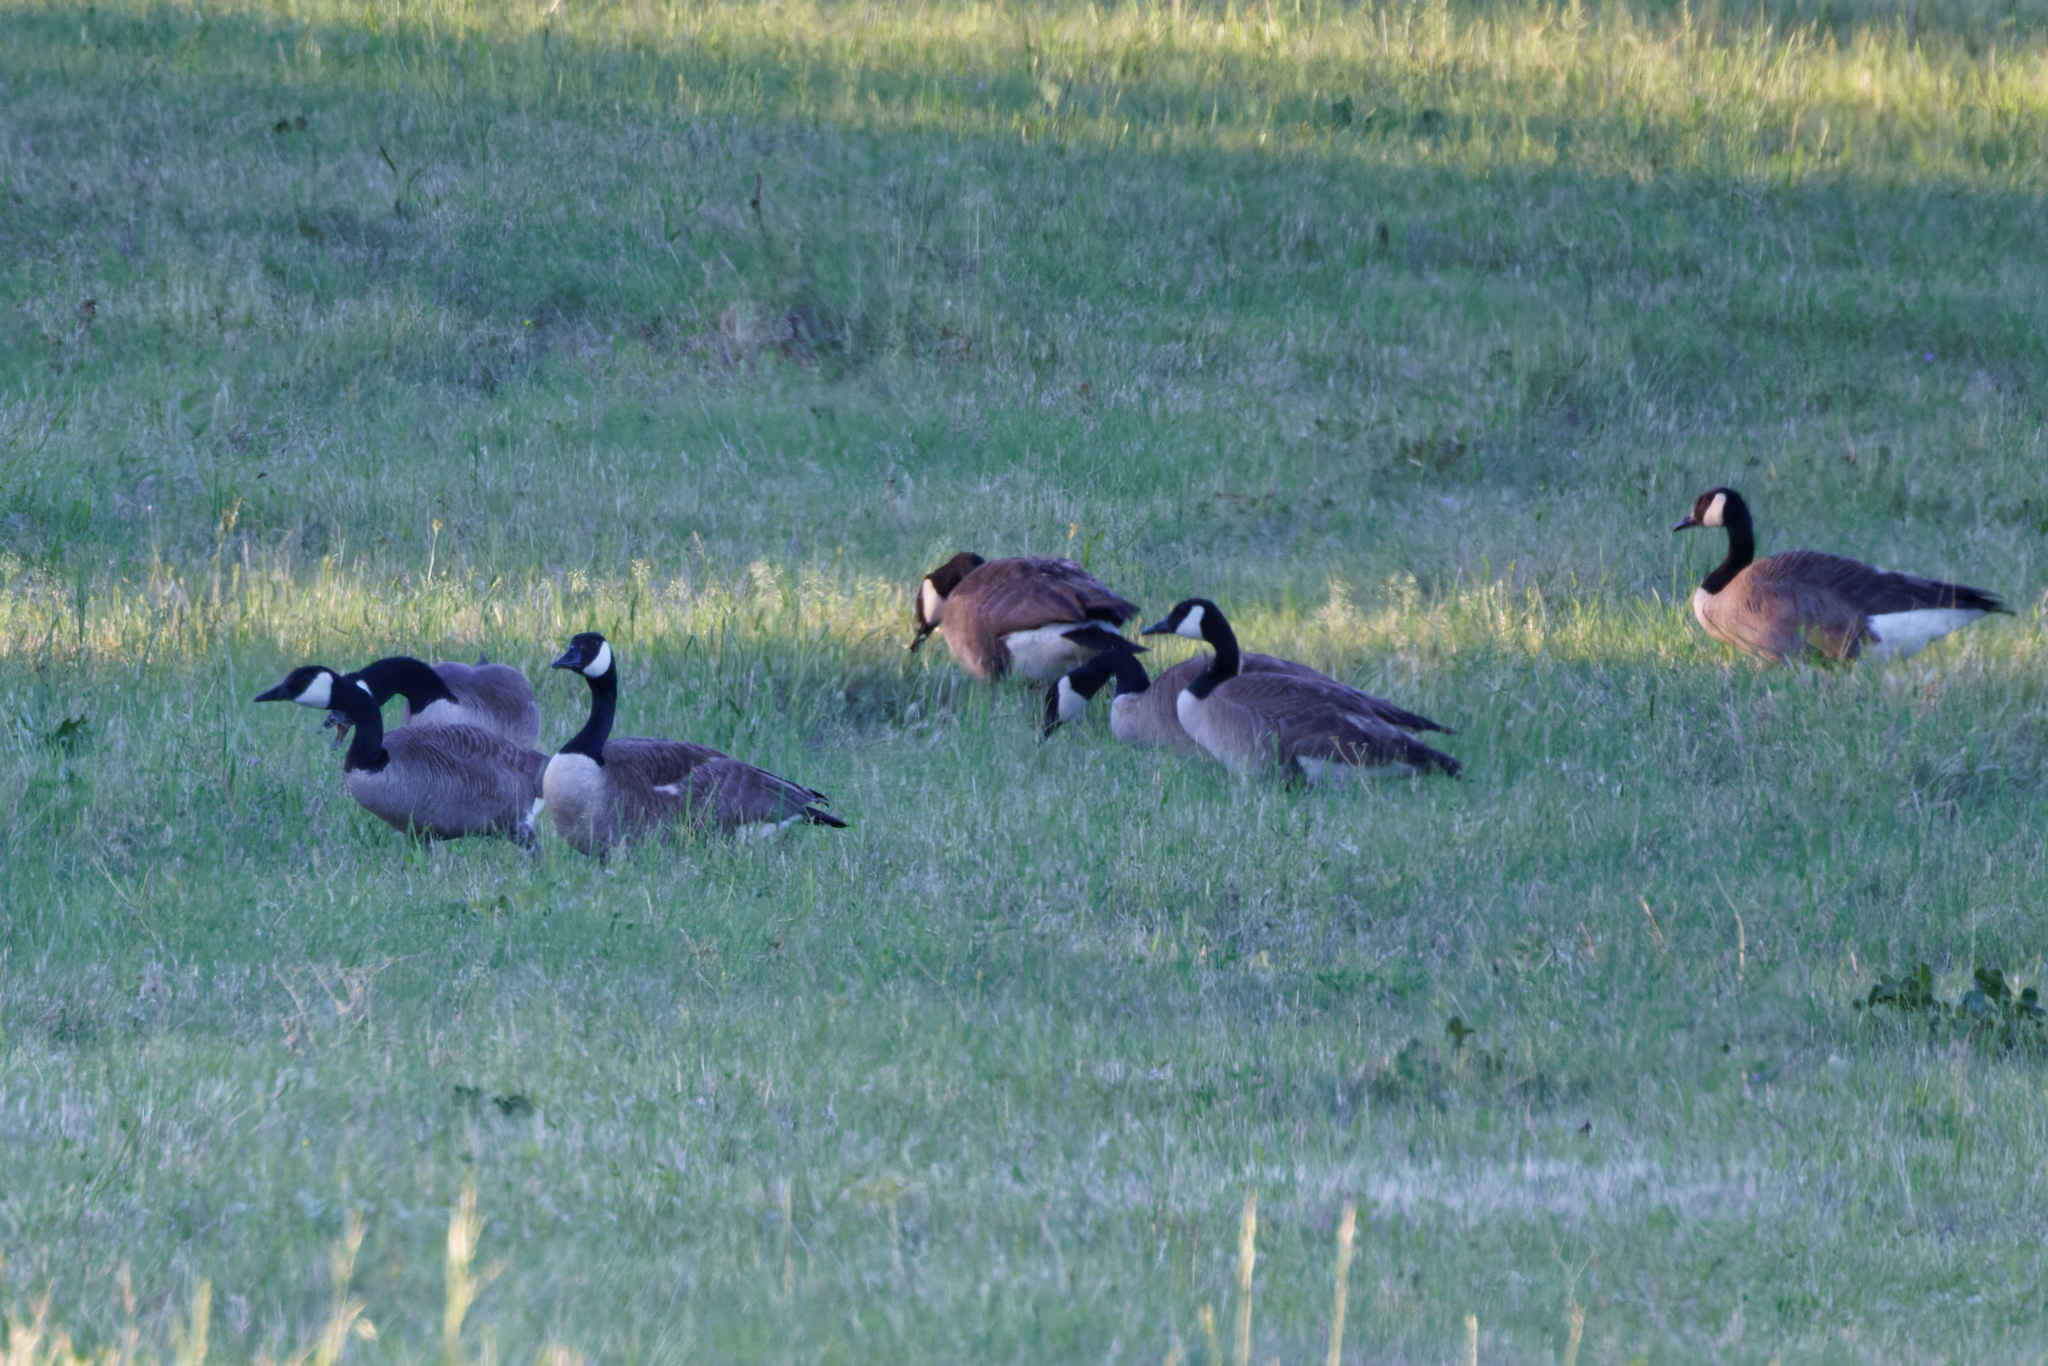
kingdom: Animalia
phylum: Chordata
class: Aves
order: Anseriformes
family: Anatidae
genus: Branta
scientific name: Branta canadensis
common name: Canada goose
